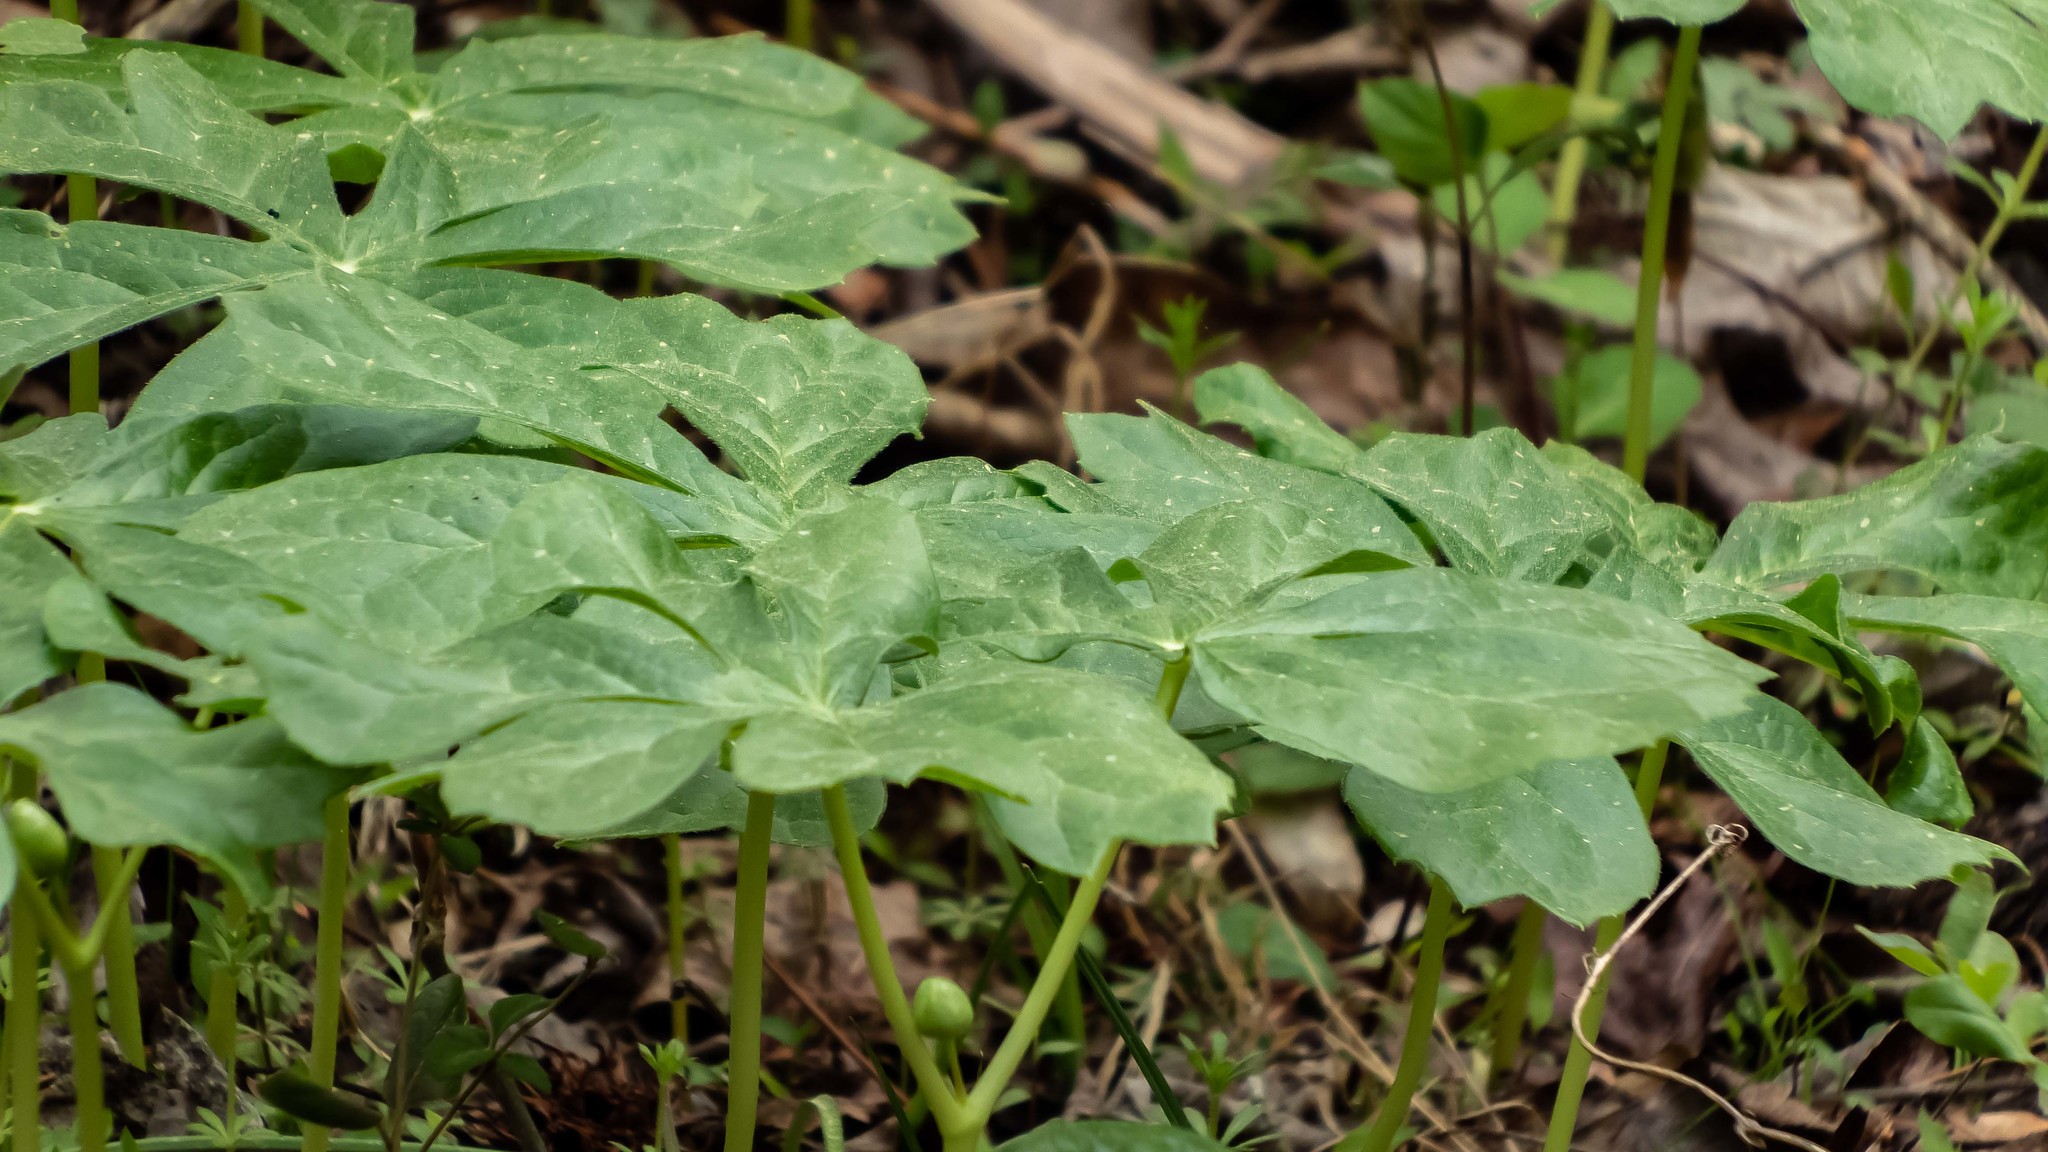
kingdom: Plantae
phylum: Tracheophyta
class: Magnoliopsida
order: Ranunculales
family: Berberidaceae
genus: Podophyllum
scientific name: Podophyllum peltatum
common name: Wild mandrake
